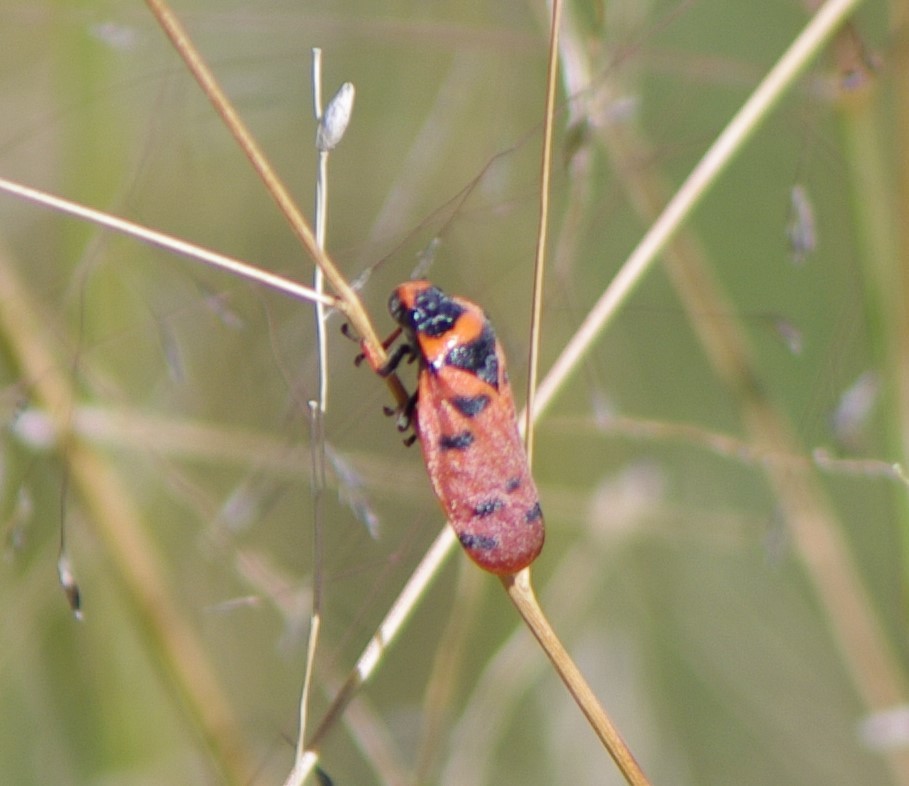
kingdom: Animalia
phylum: Arthropoda
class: Insecta
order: Hemiptera
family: Cercopidae
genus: Locris
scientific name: Locris arithmetica
